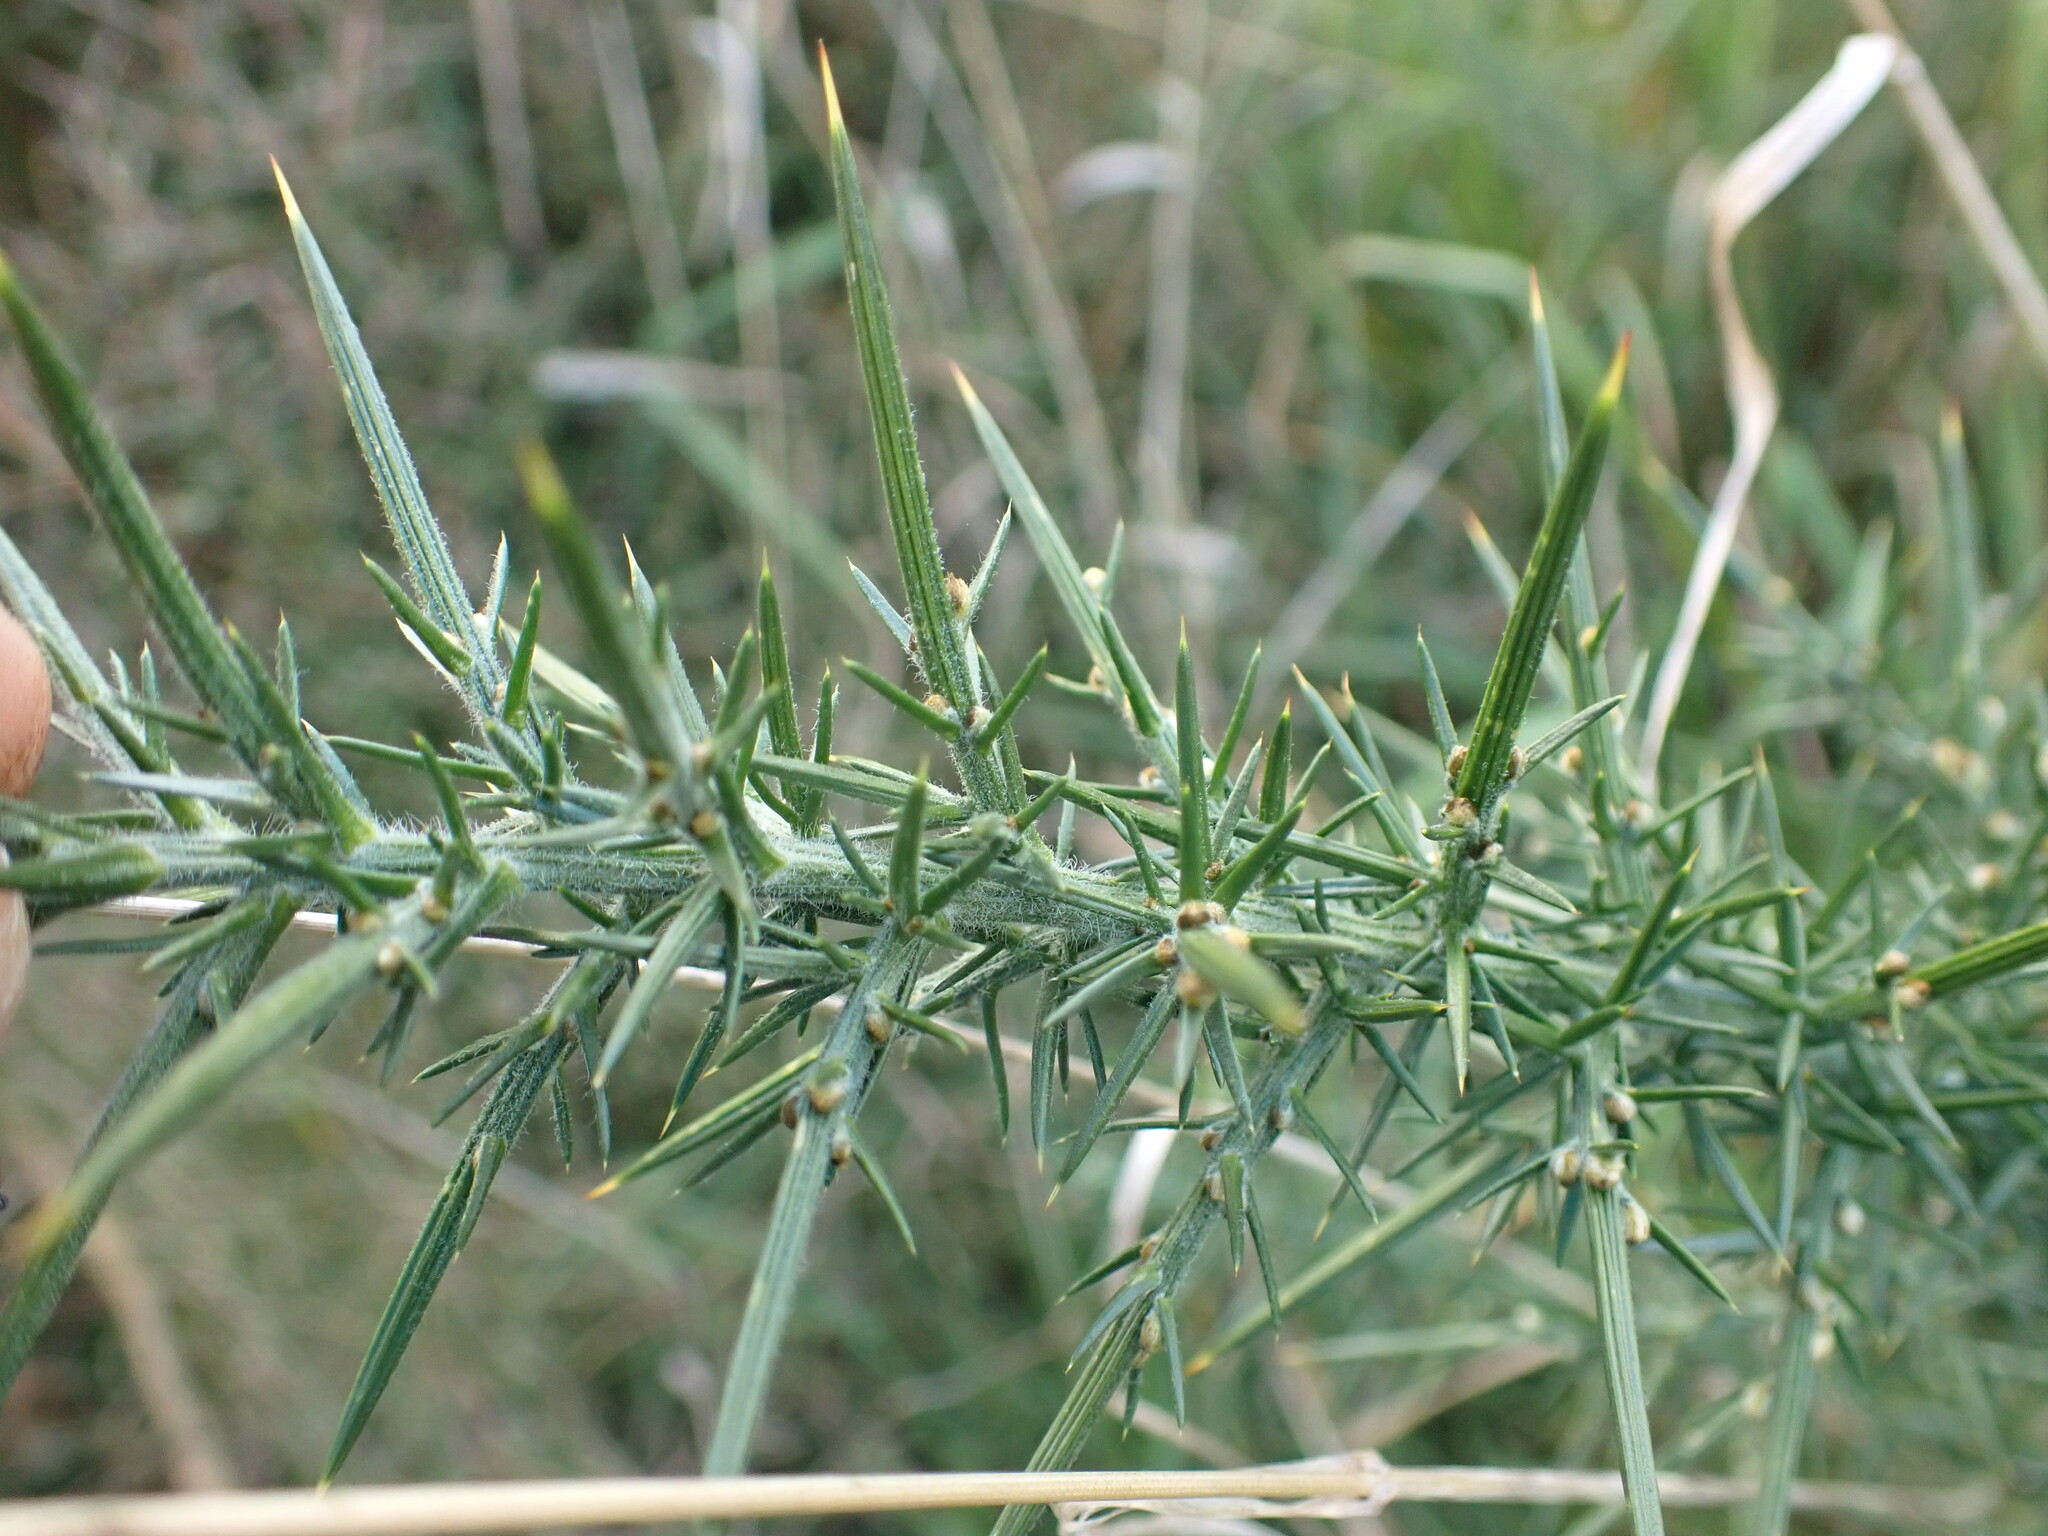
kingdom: Plantae
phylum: Tracheophyta
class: Magnoliopsida
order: Fabales
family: Fabaceae
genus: Ulex
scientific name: Ulex europaeus
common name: Common gorse
